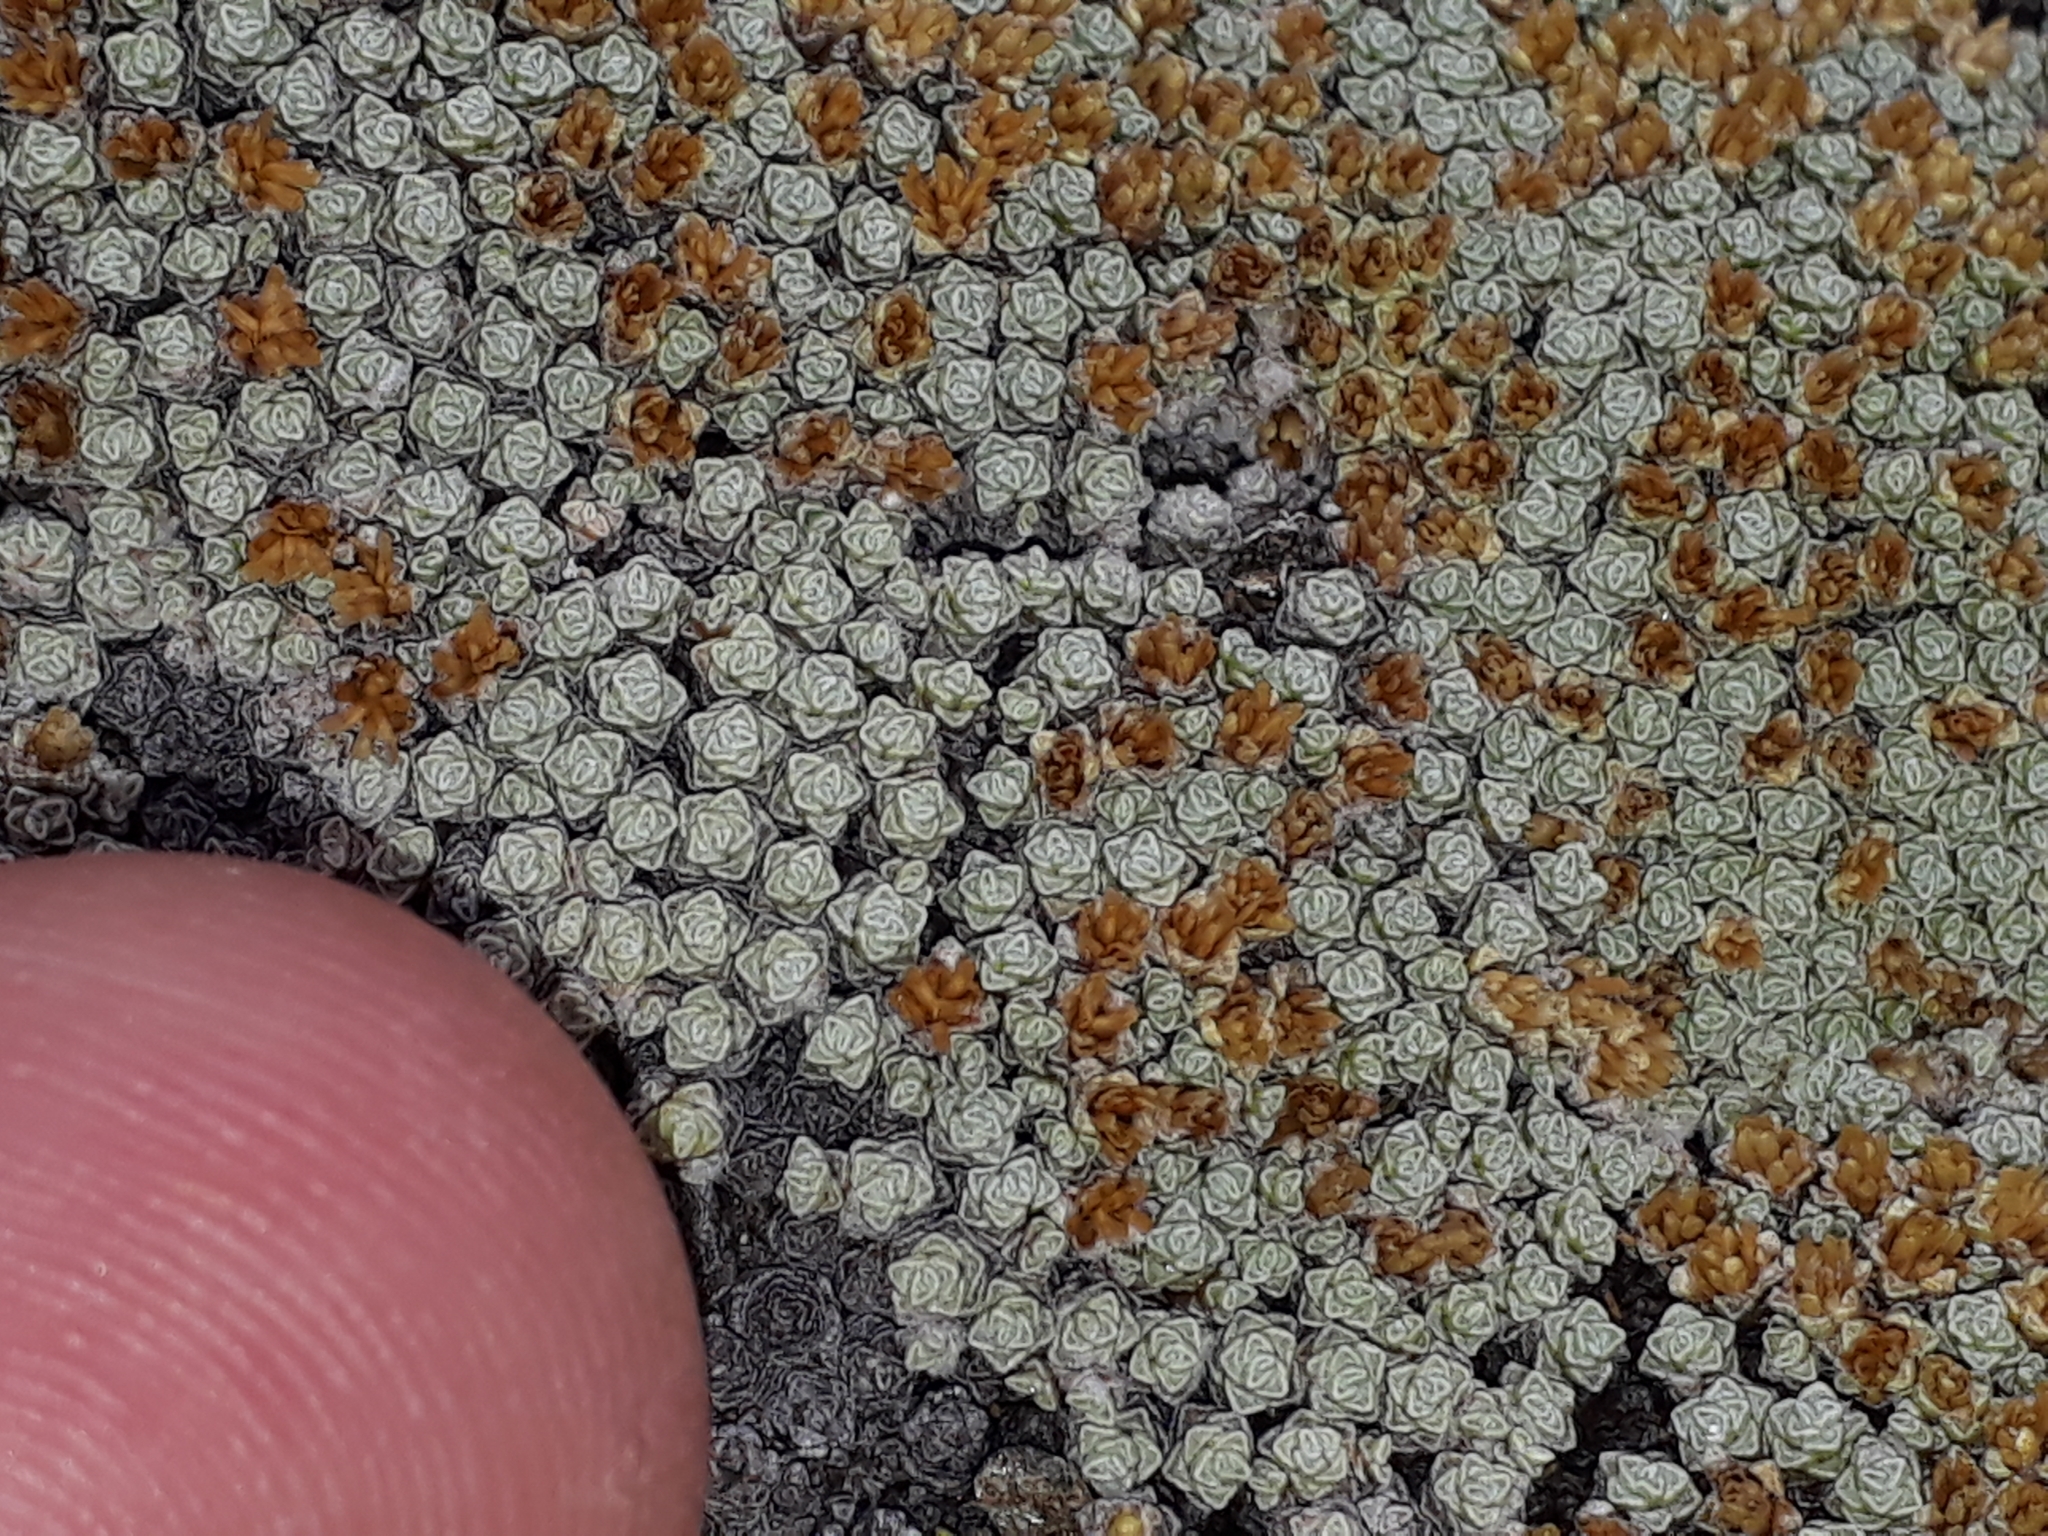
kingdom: Plantae
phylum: Tracheophyta
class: Magnoliopsida
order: Asterales
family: Asteraceae
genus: Raoulia
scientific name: Raoulia australis
